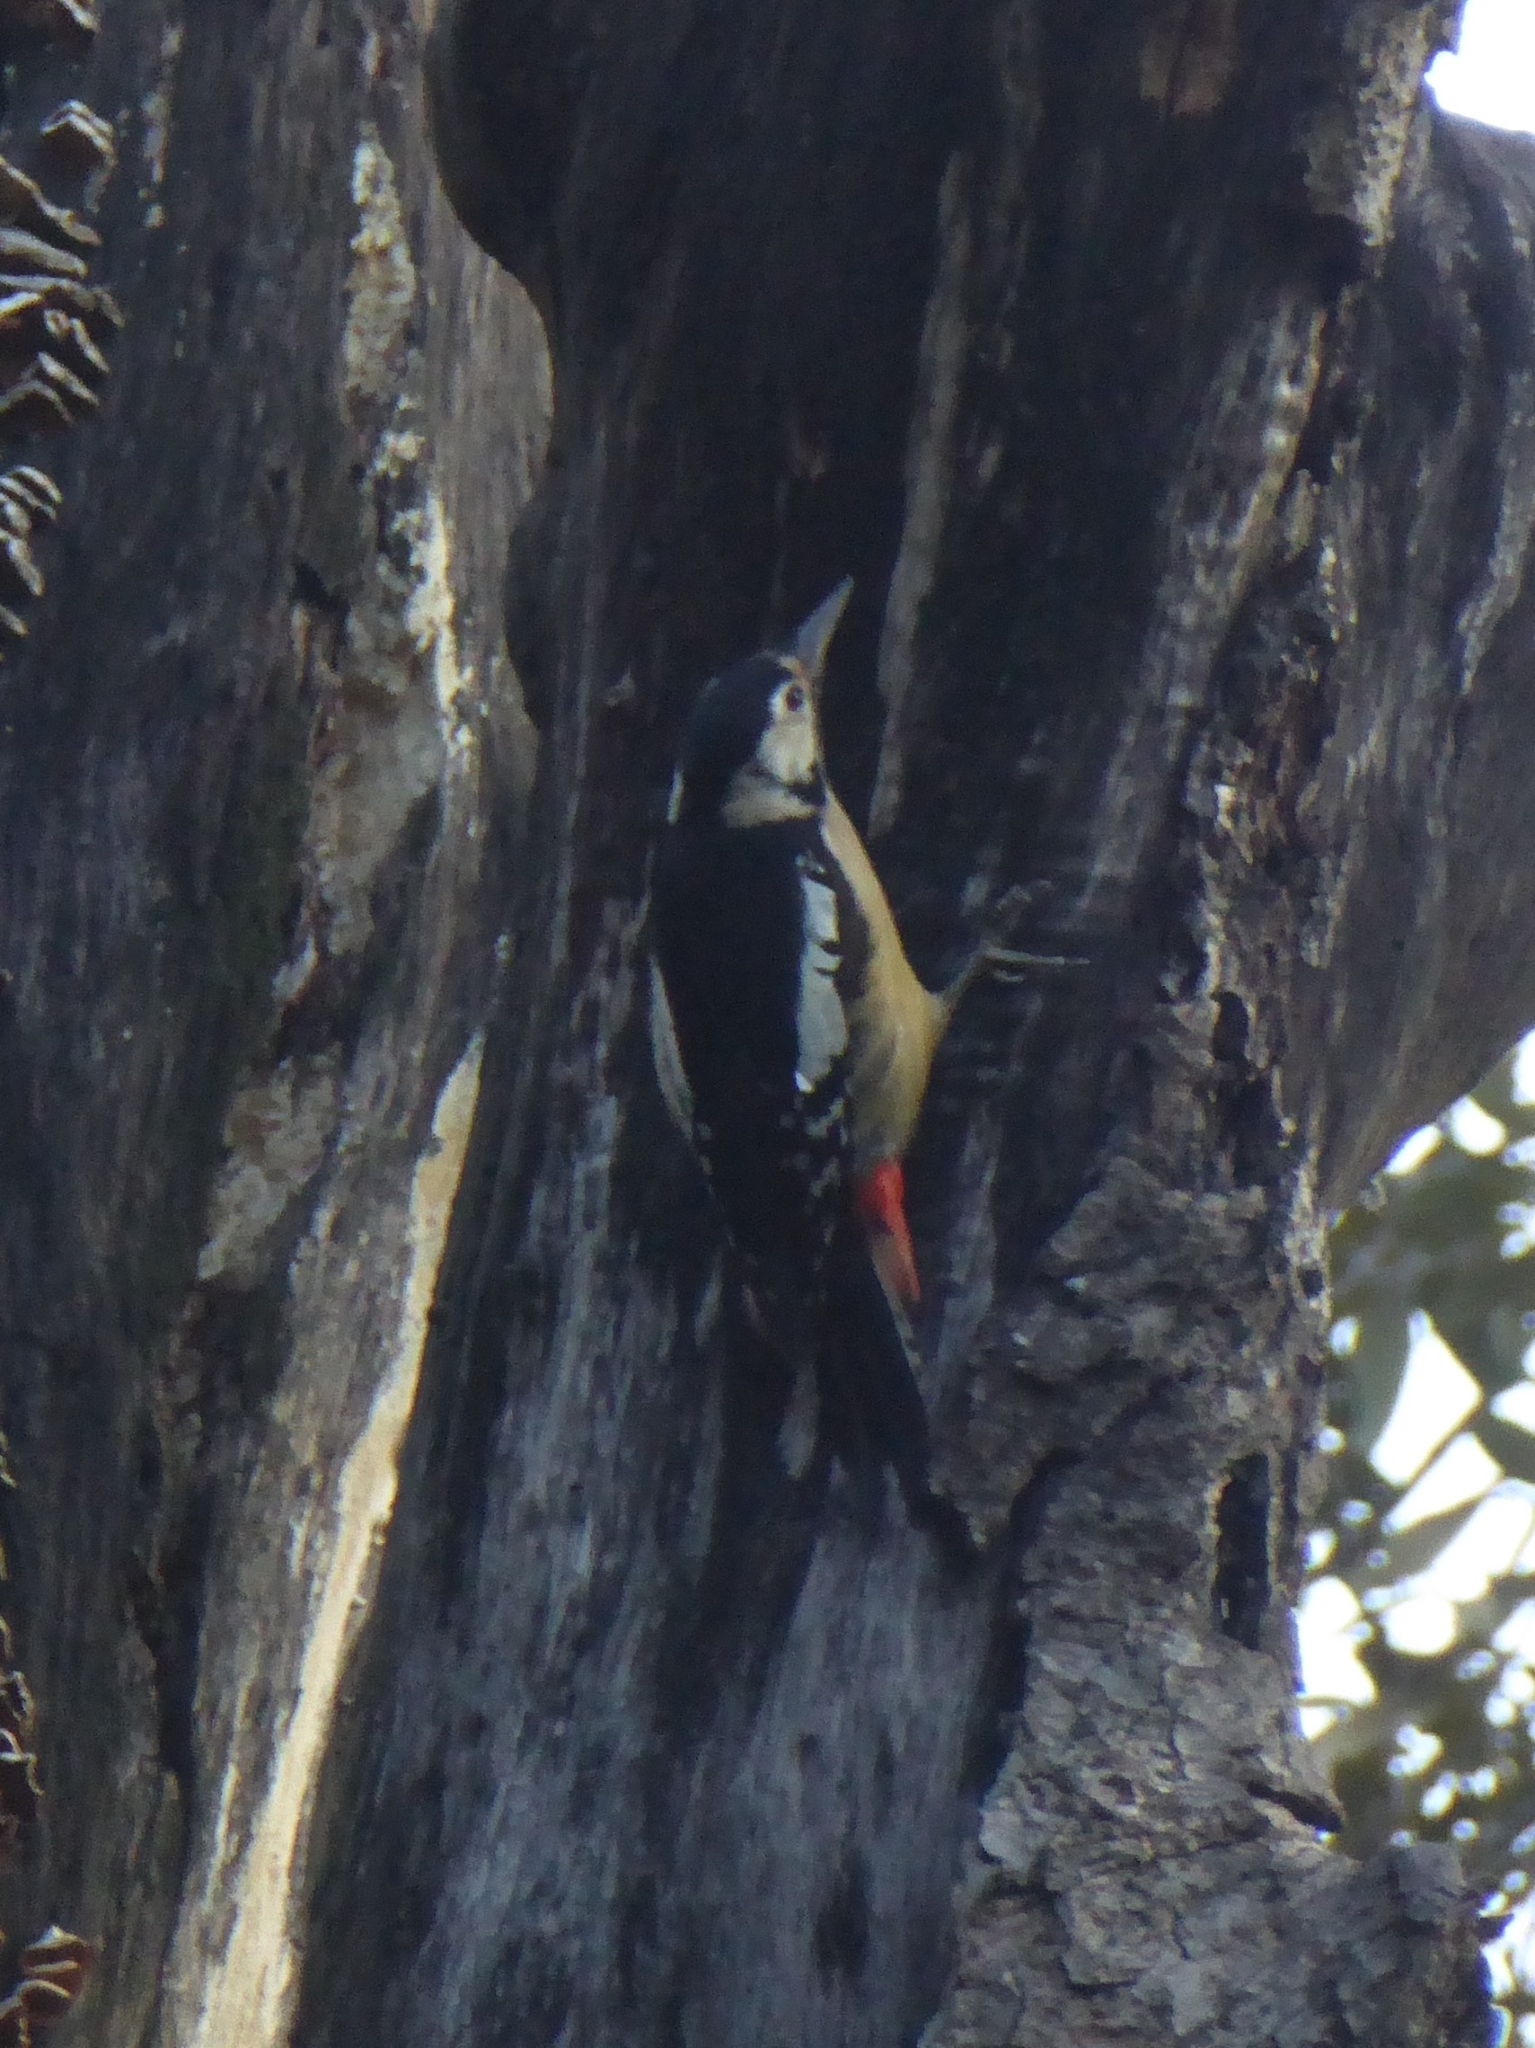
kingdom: Animalia
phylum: Chordata
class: Aves
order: Piciformes
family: Picidae
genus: Dendrocopos
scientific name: Dendrocopos himalayensis
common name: Himalayan woodpecker
